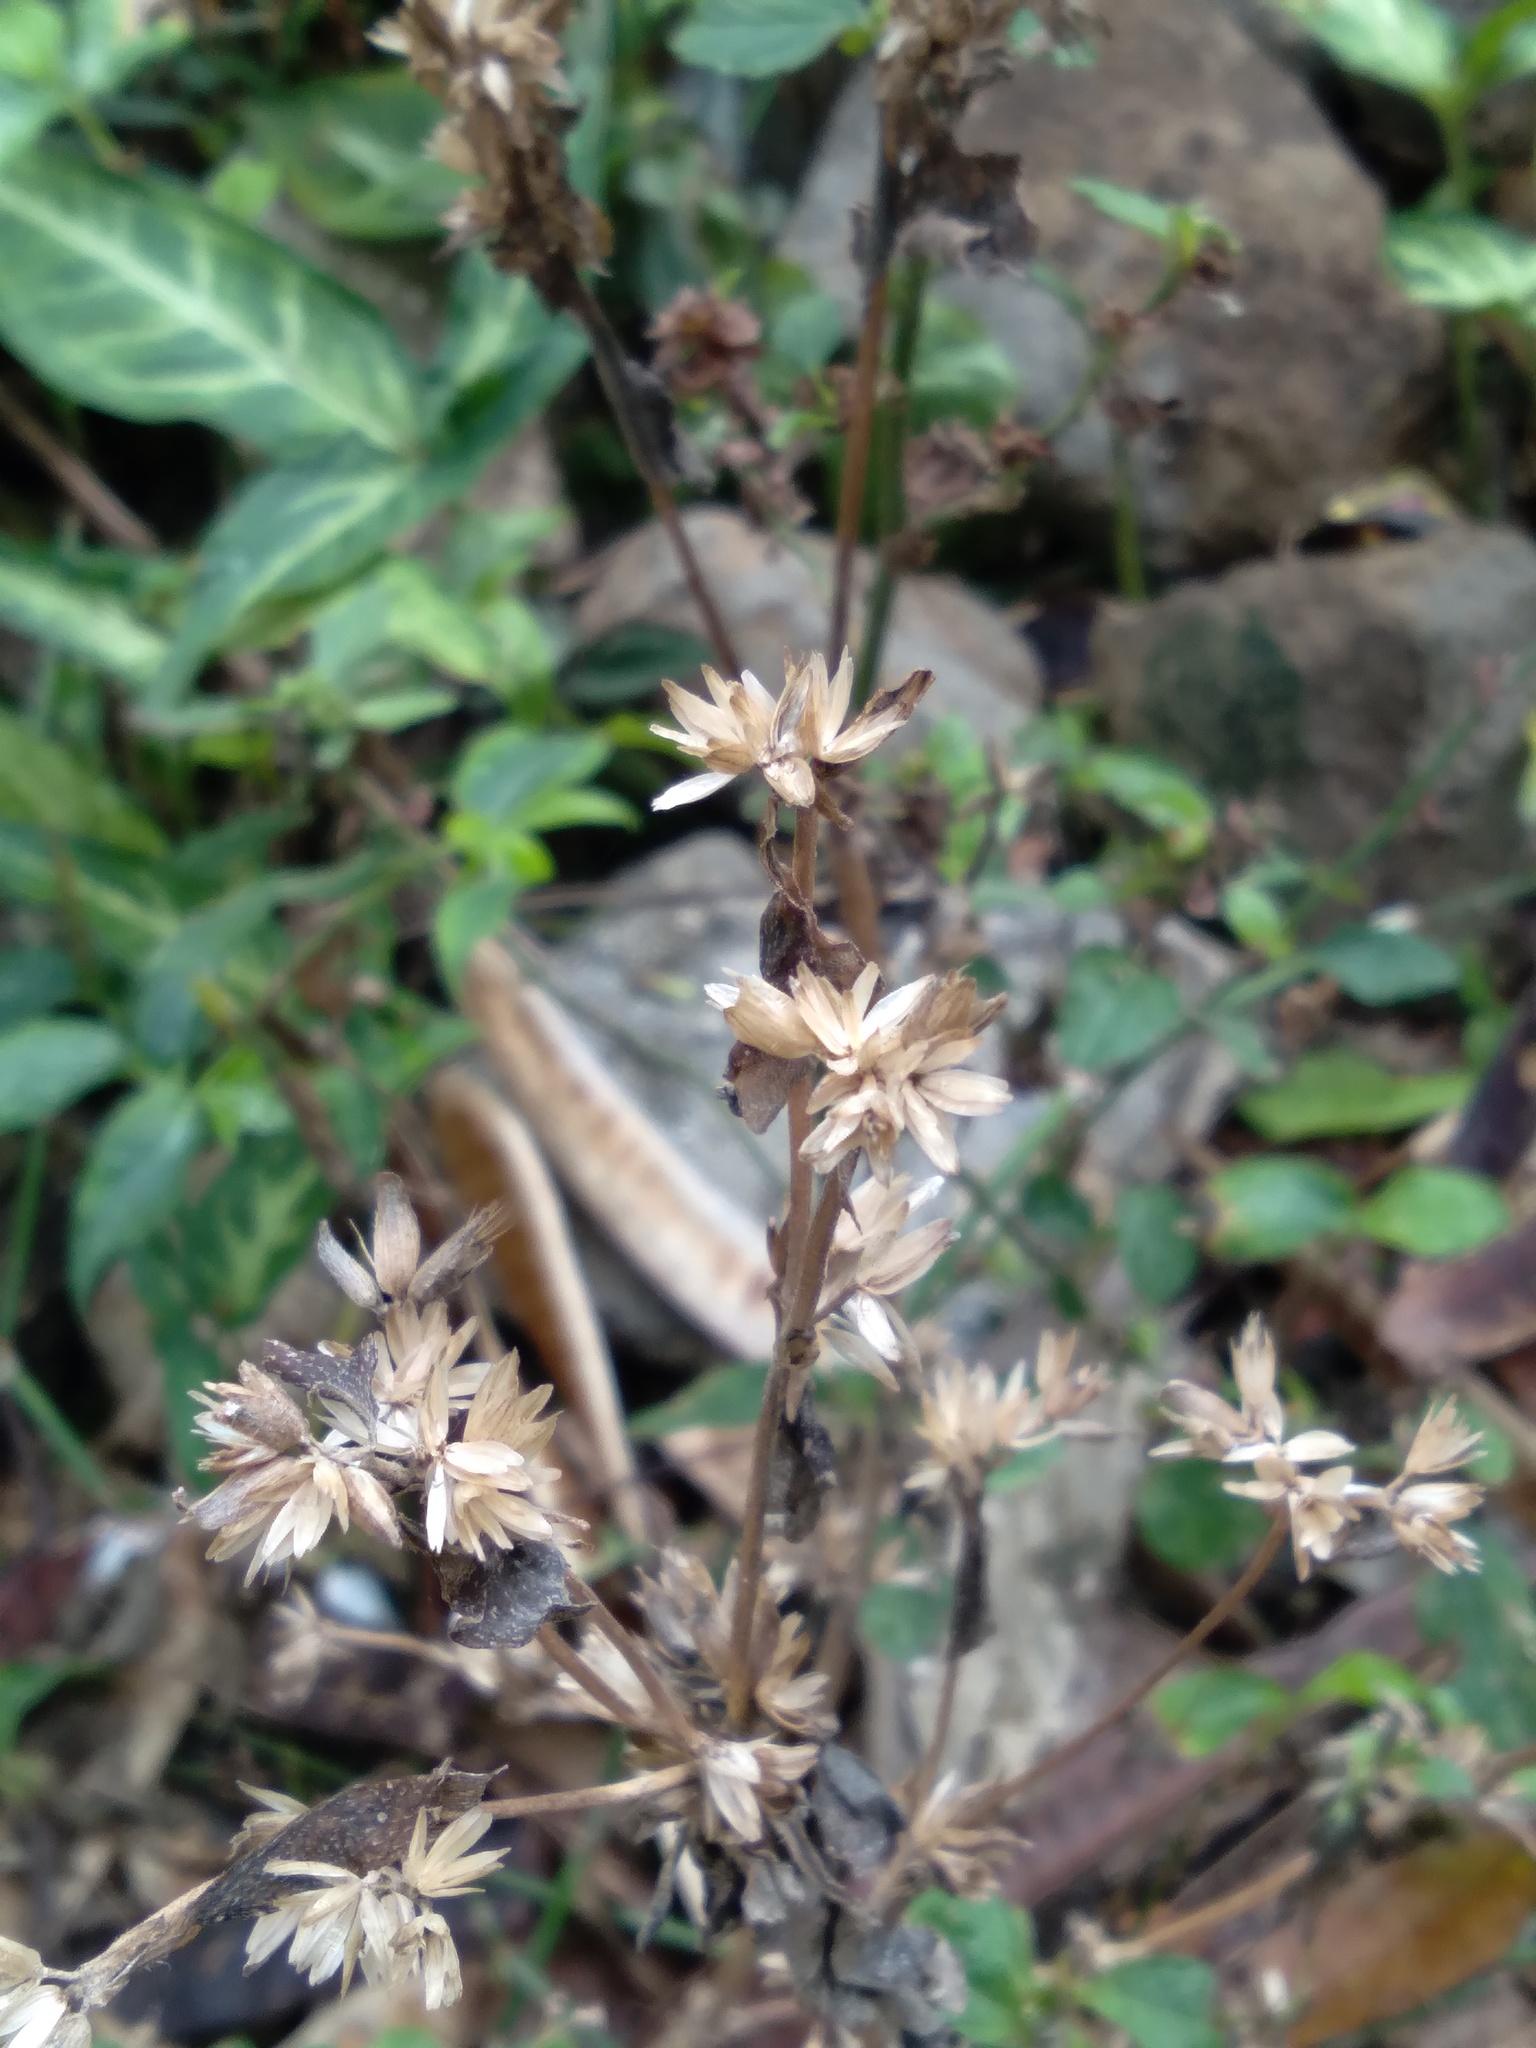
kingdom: Plantae
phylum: Tracheophyta
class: Magnoliopsida
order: Asterales
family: Asteraceae
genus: Synedrella
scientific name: Synedrella nodiflora
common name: Nodeweed
